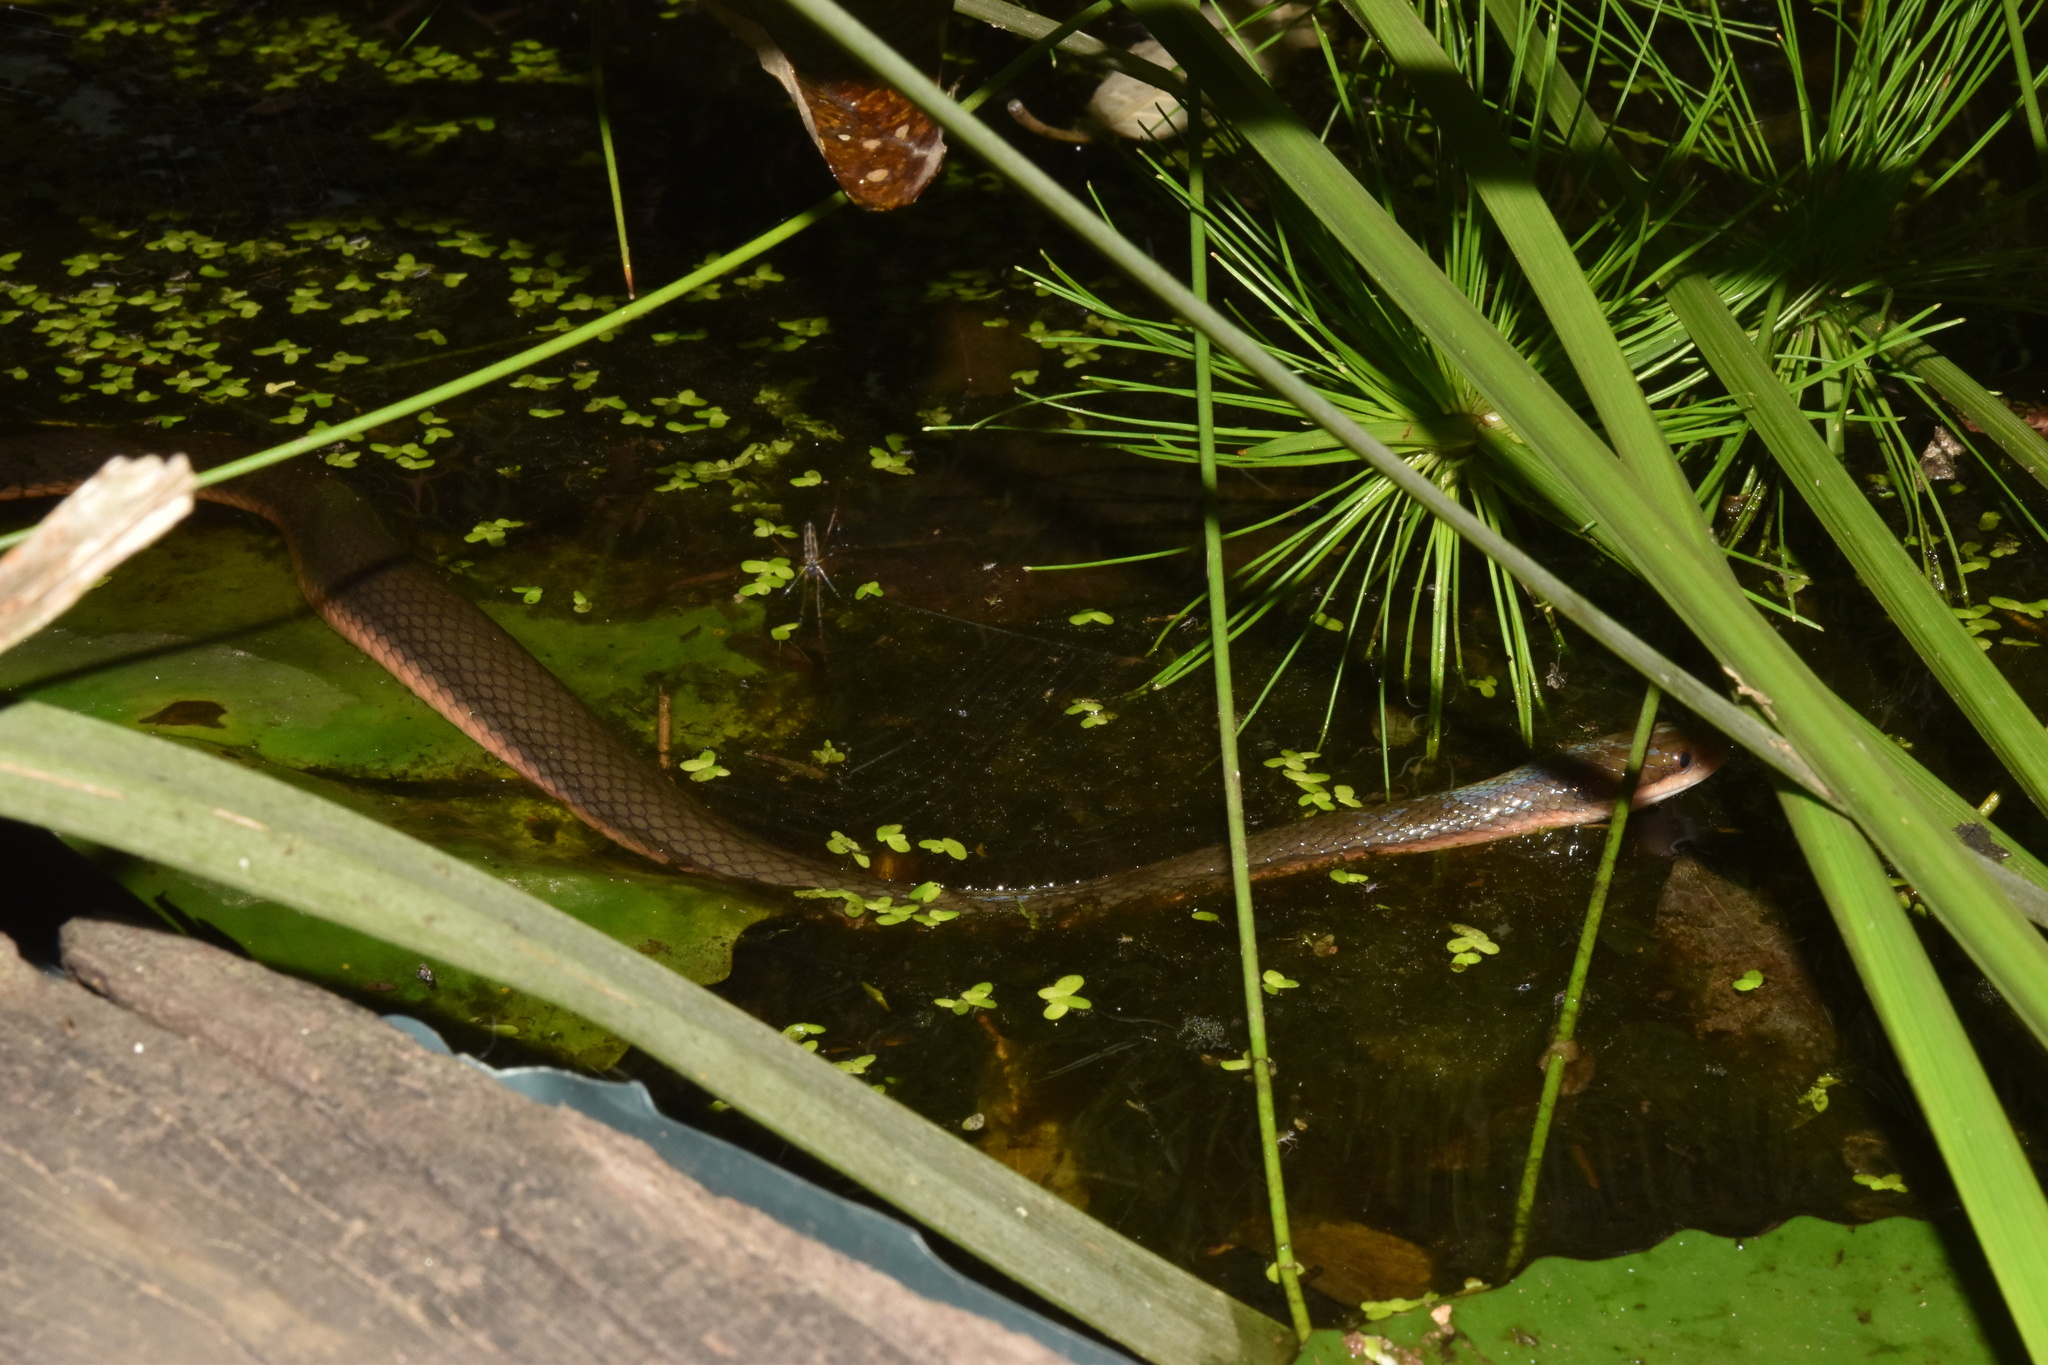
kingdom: Animalia
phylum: Chordata
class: Squamata
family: Lamprophiidae
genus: Lycodonomorphus
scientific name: Lycodonomorphus rufulus
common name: Brown water snake
